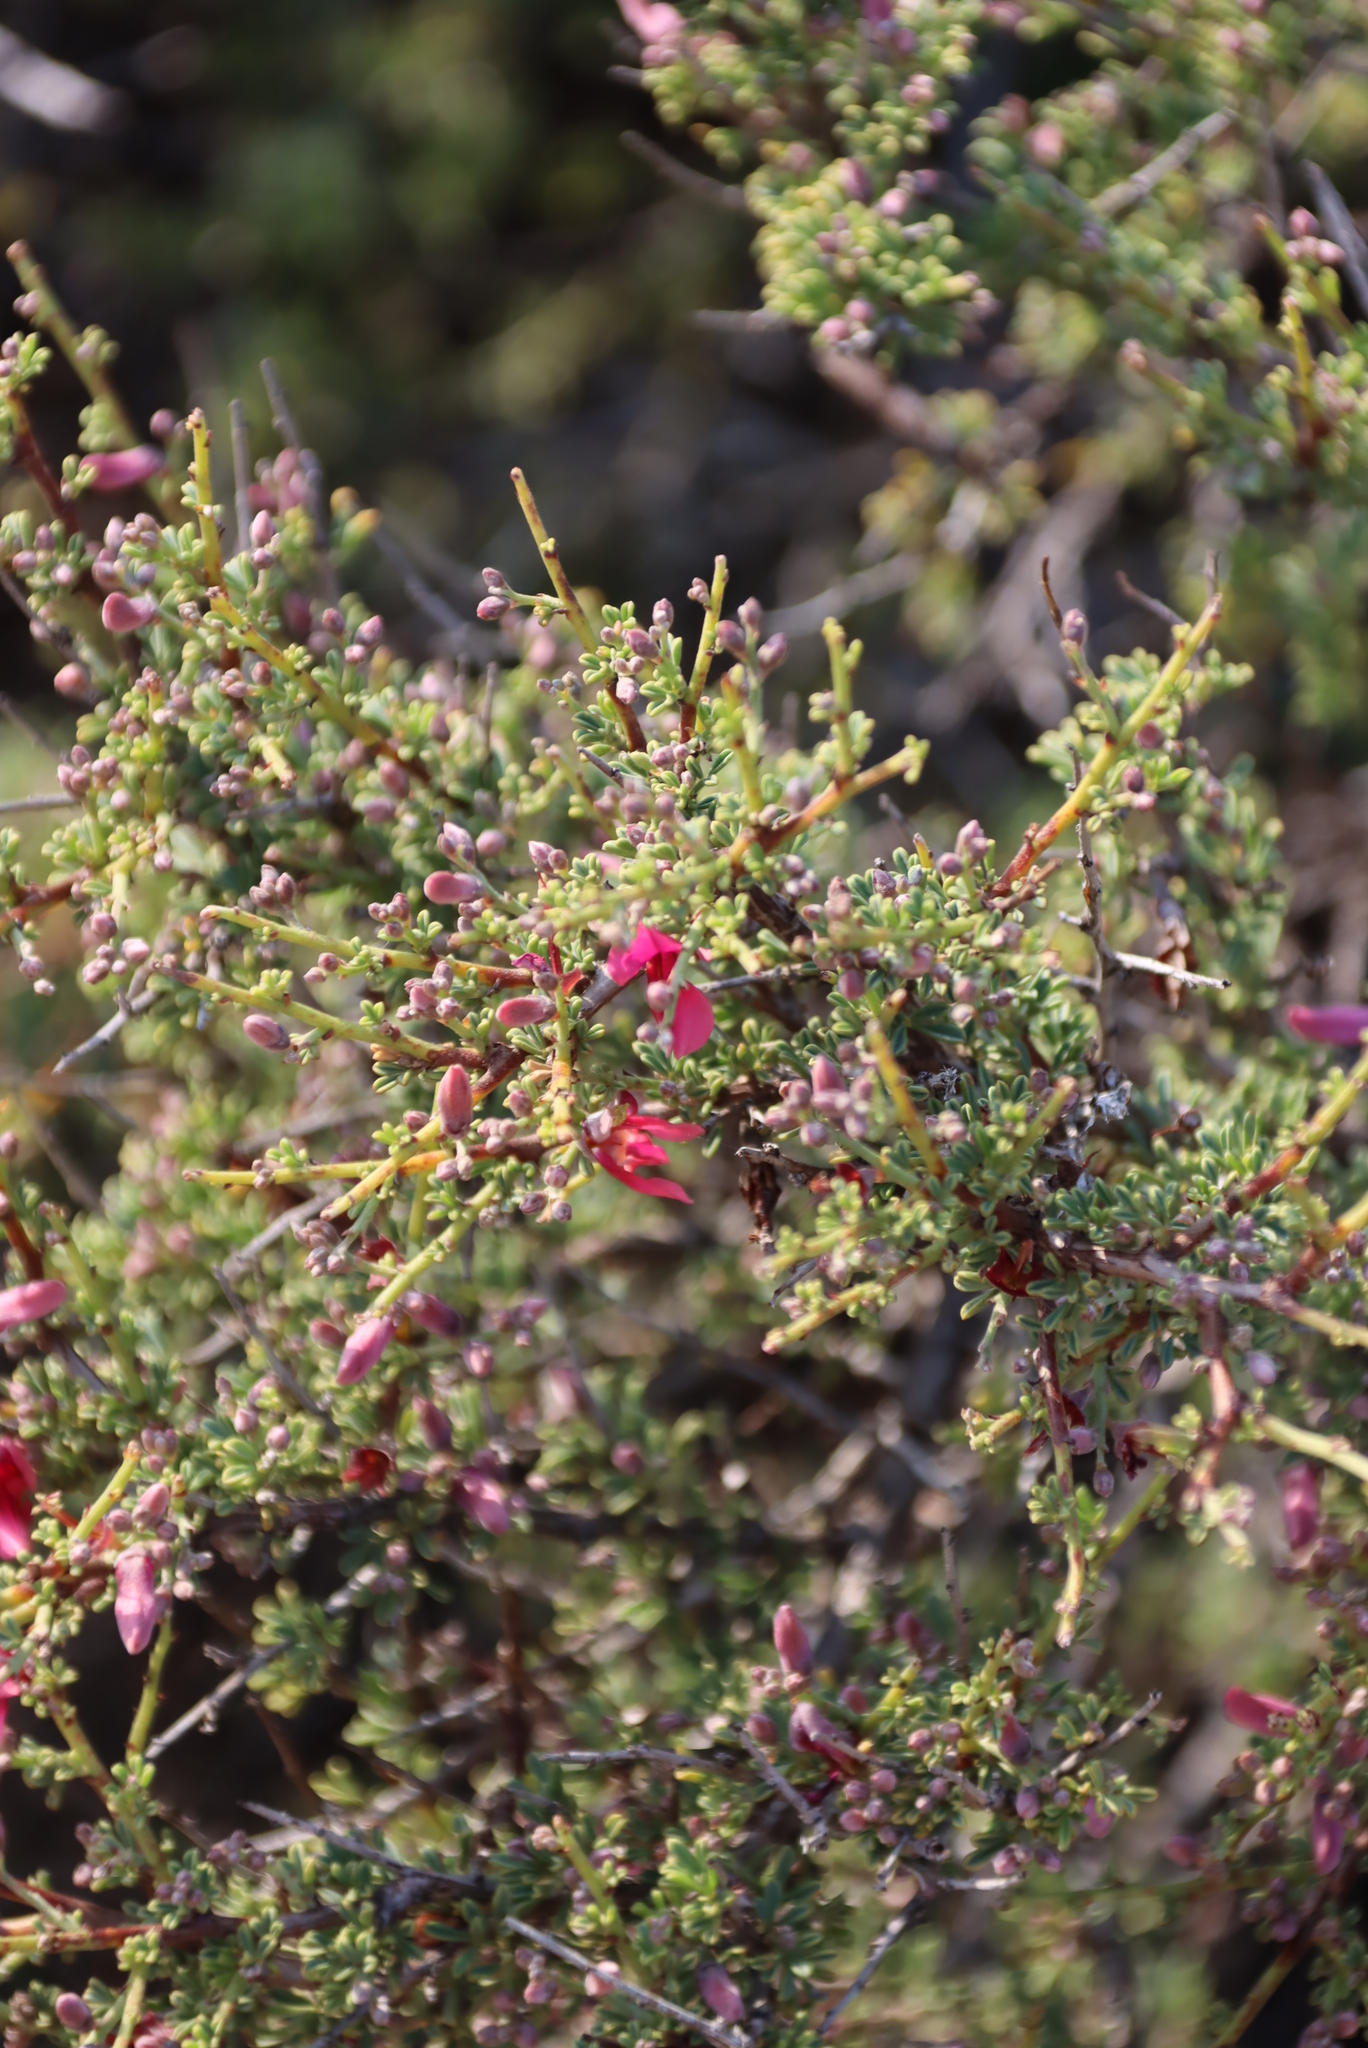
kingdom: Plantae
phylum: Tracheophyta
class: Magnoliopsida
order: Fabales
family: Fabaceae
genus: Indigofera
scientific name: Indigofera spinescens
